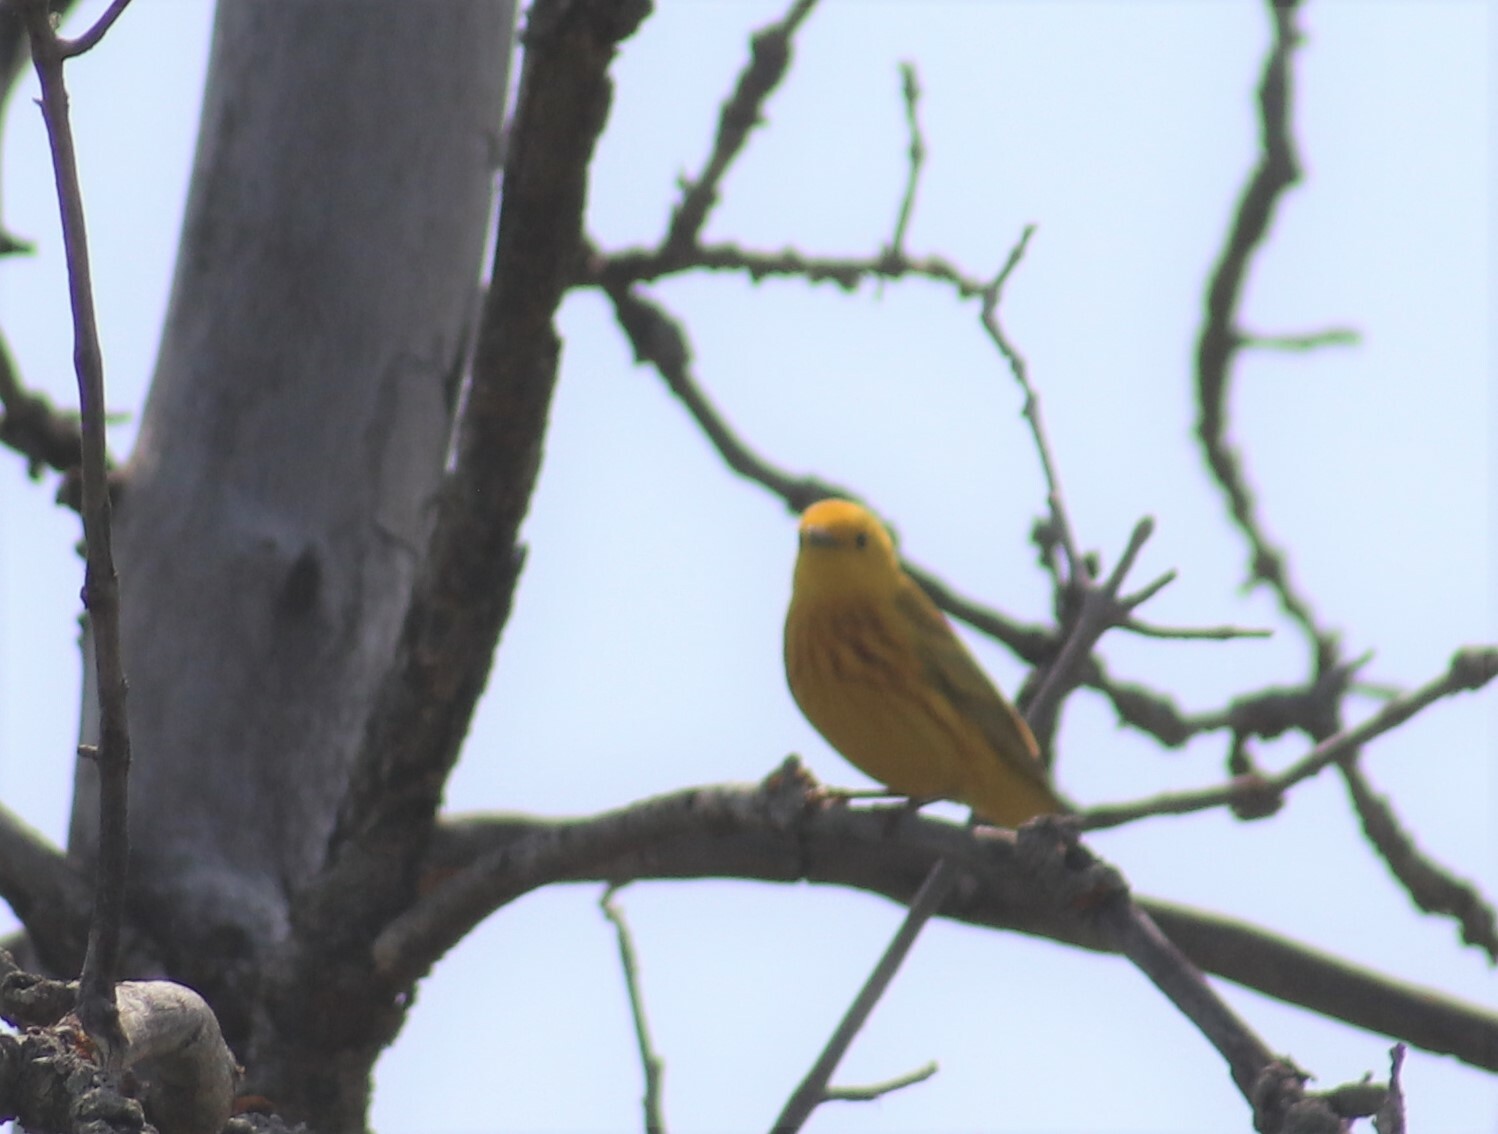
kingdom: Animalia
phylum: Chordata
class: Aves
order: Passeriformes
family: Parulidae
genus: Setophaga
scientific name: Setophaga petechia
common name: Yellow warbler
